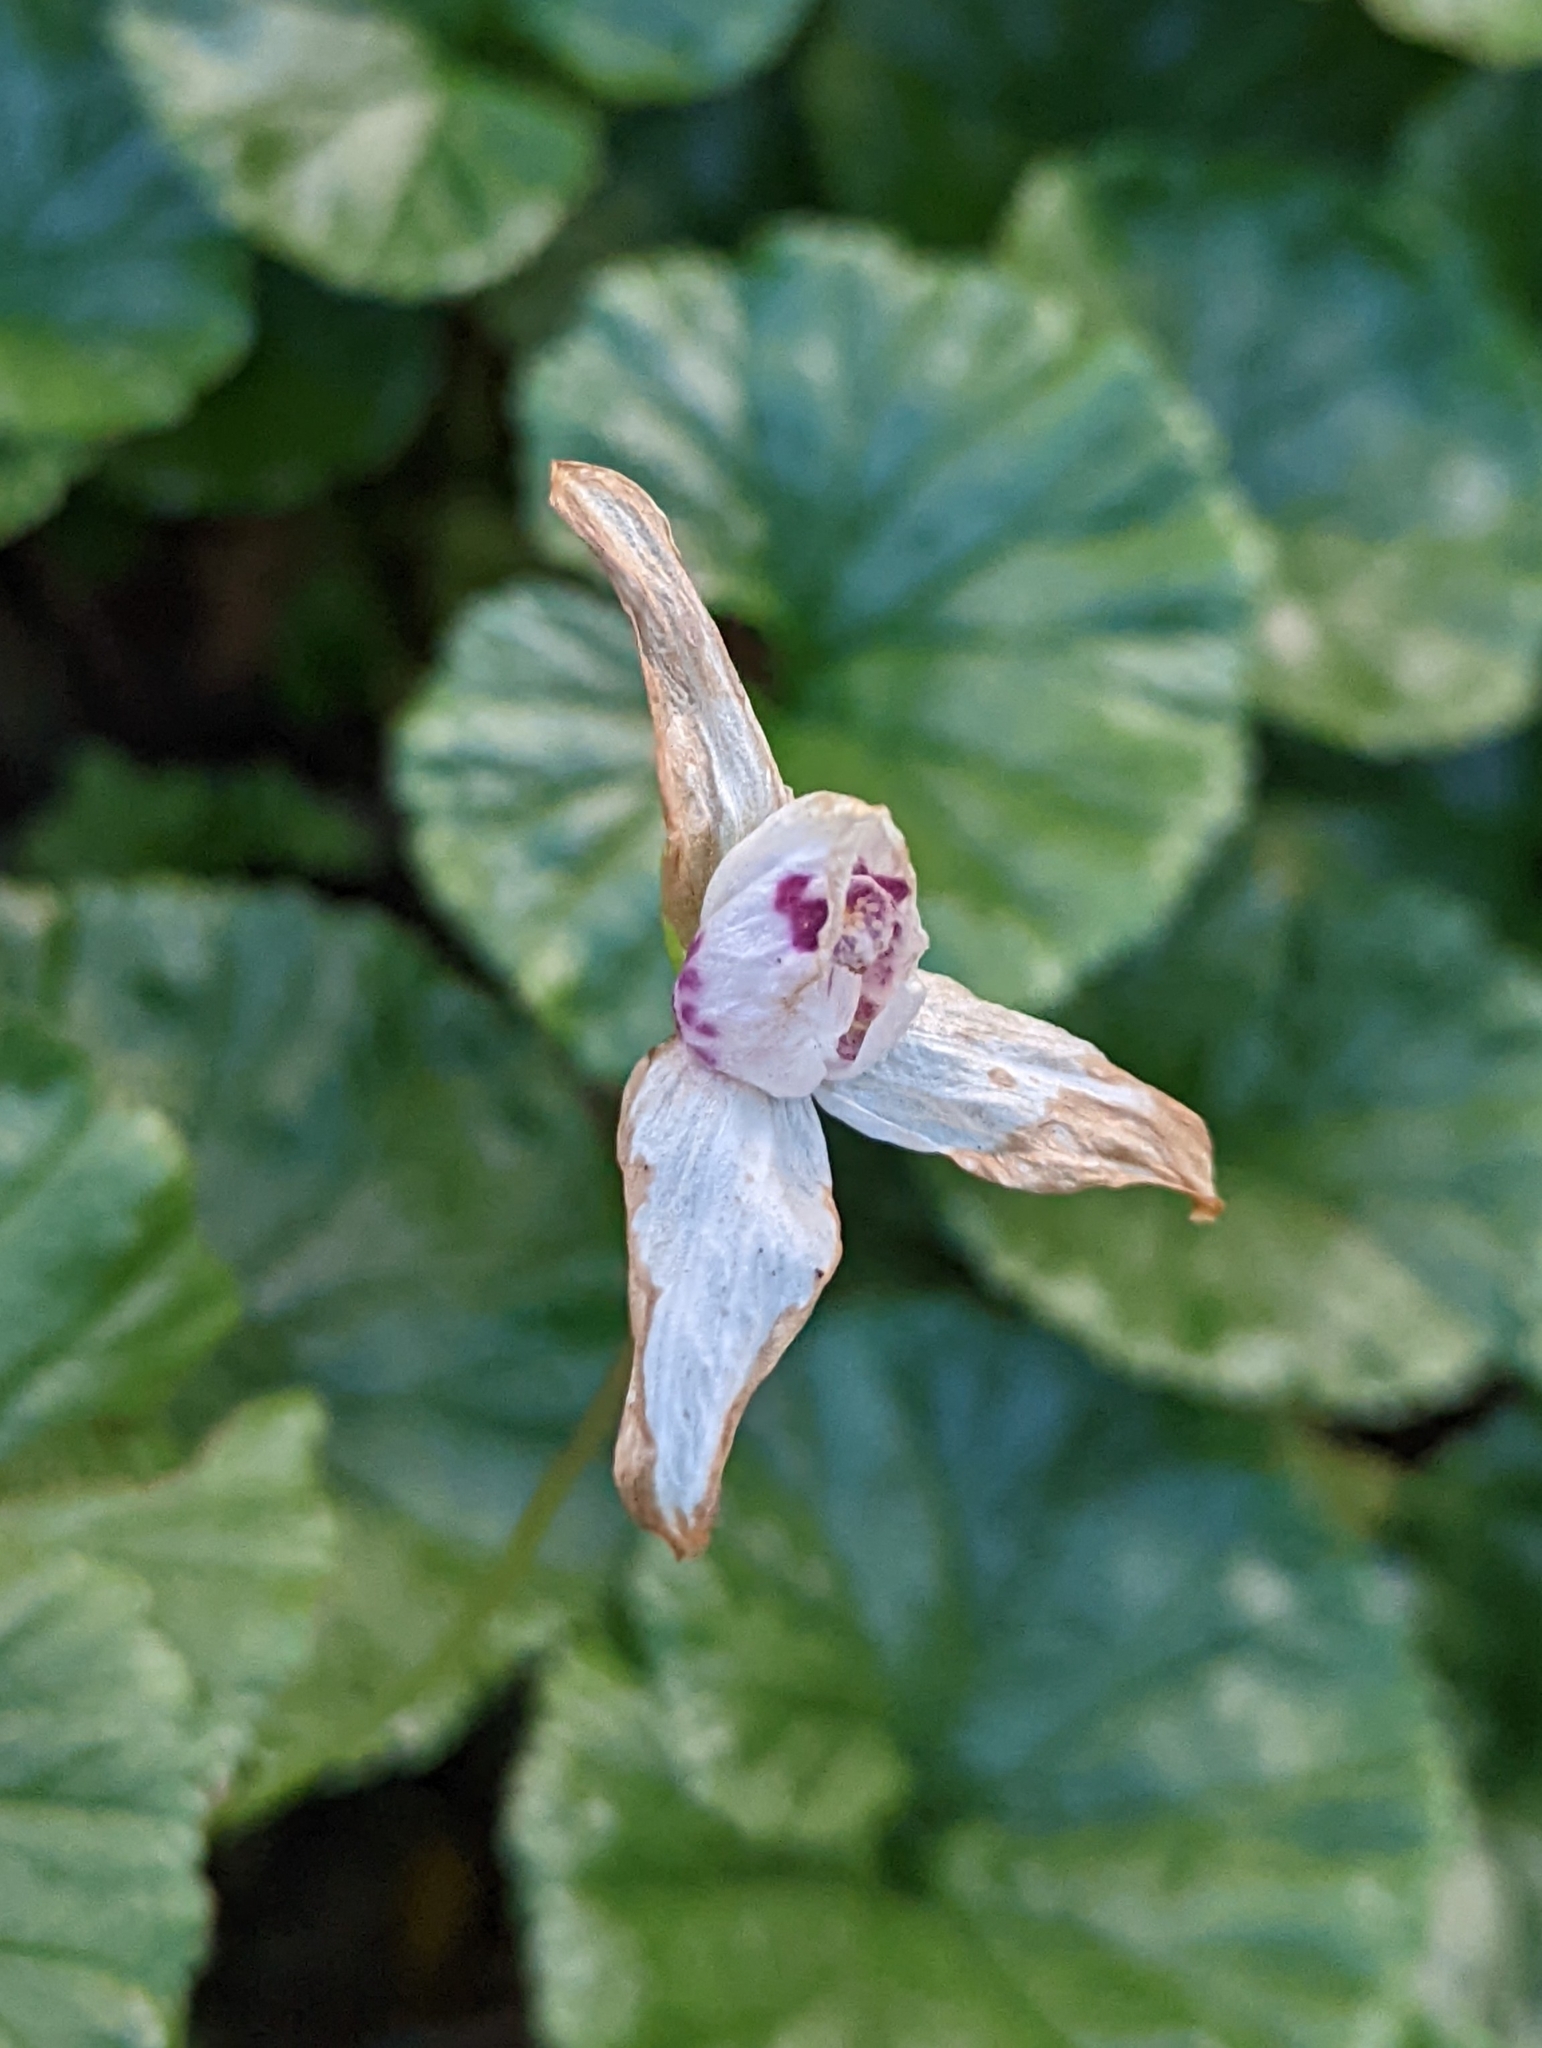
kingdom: Plantae
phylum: Tracheophyta
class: Liliopsida
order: Asparagales
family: Orchidaceae
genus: Codonorchis
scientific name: Codonorchis lessonii
